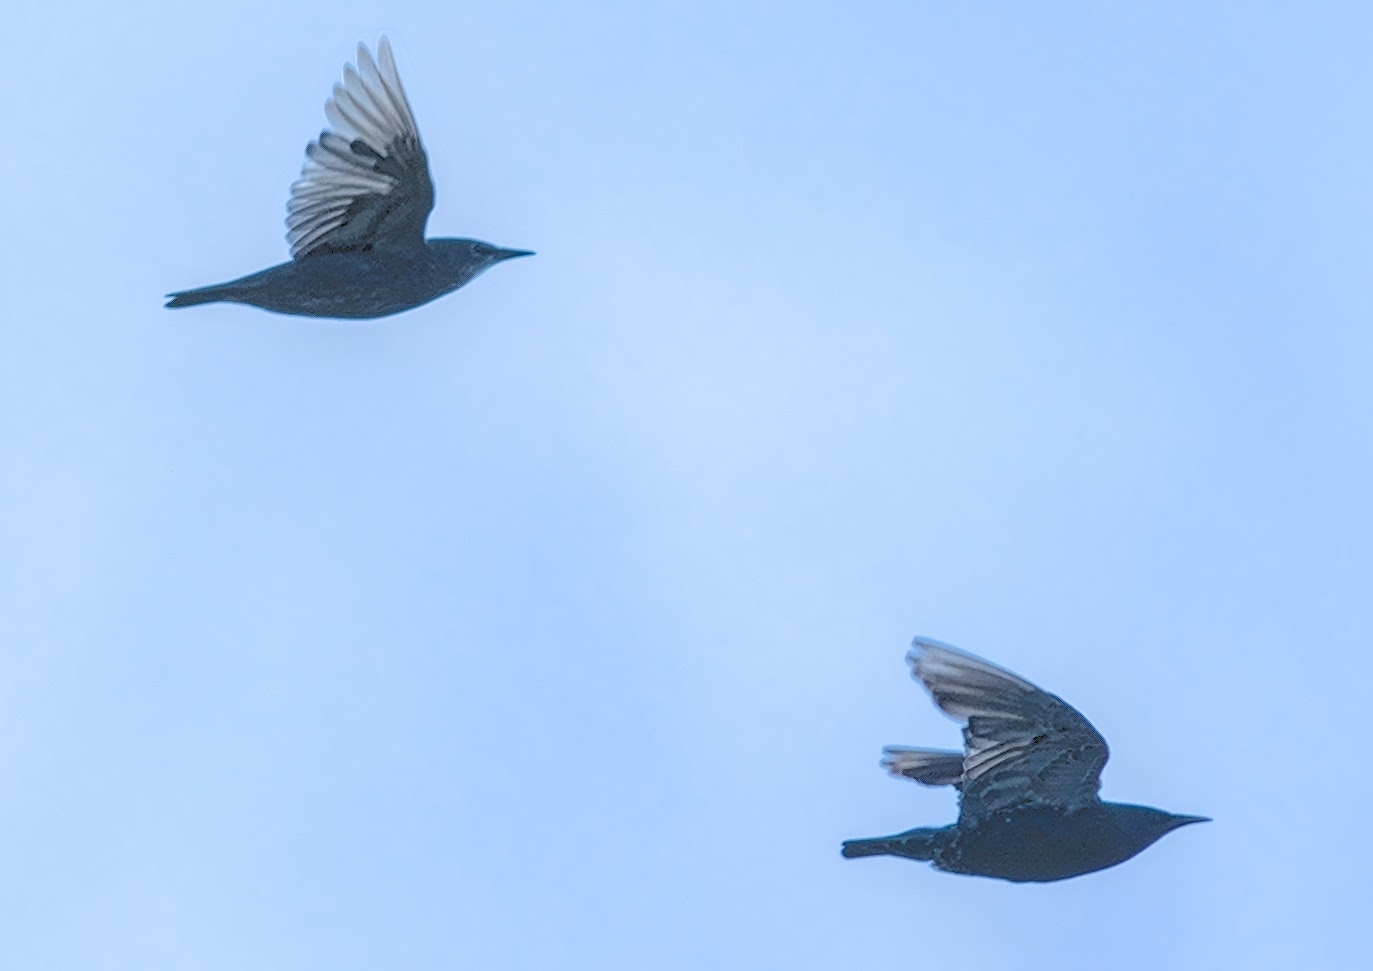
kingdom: Animalia
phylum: Chordata
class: Aves
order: Passeriformes
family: Sturnidae
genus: Sturnus
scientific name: Sturnus vulgaris
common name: Common starling
